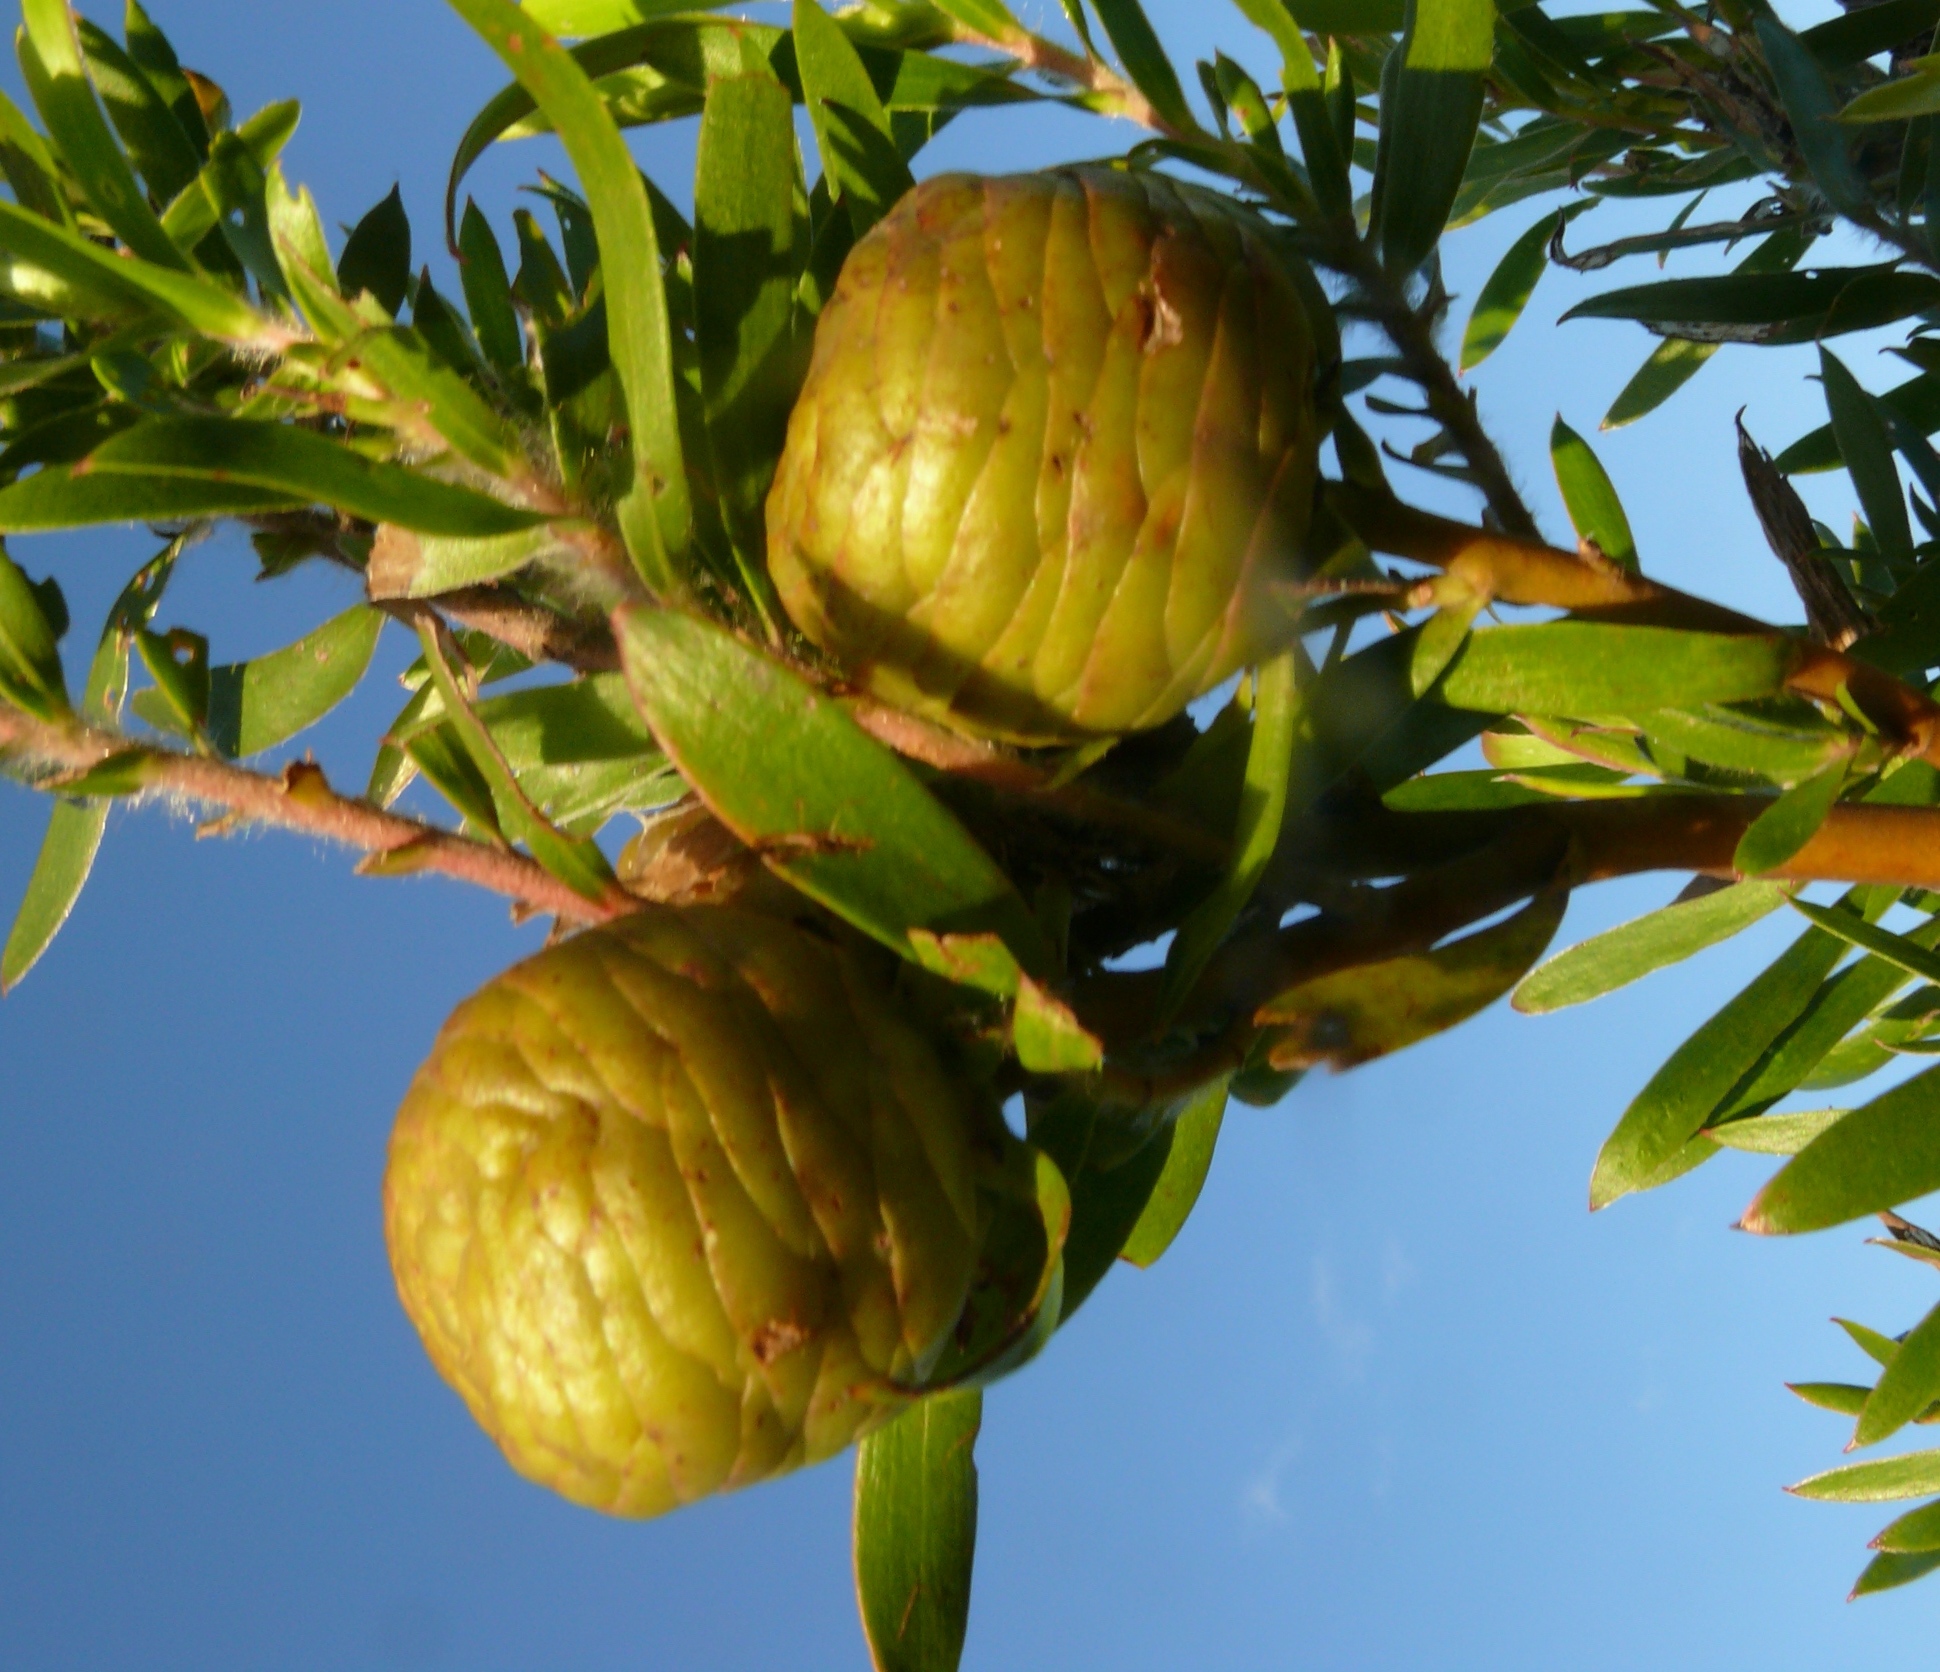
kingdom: Plantae
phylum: Tracheophyta
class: Magnoliopsida
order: Proteales
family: Proteaceae
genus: Leucadendron
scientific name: Leucadendron conicum
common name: Garden route conebush
